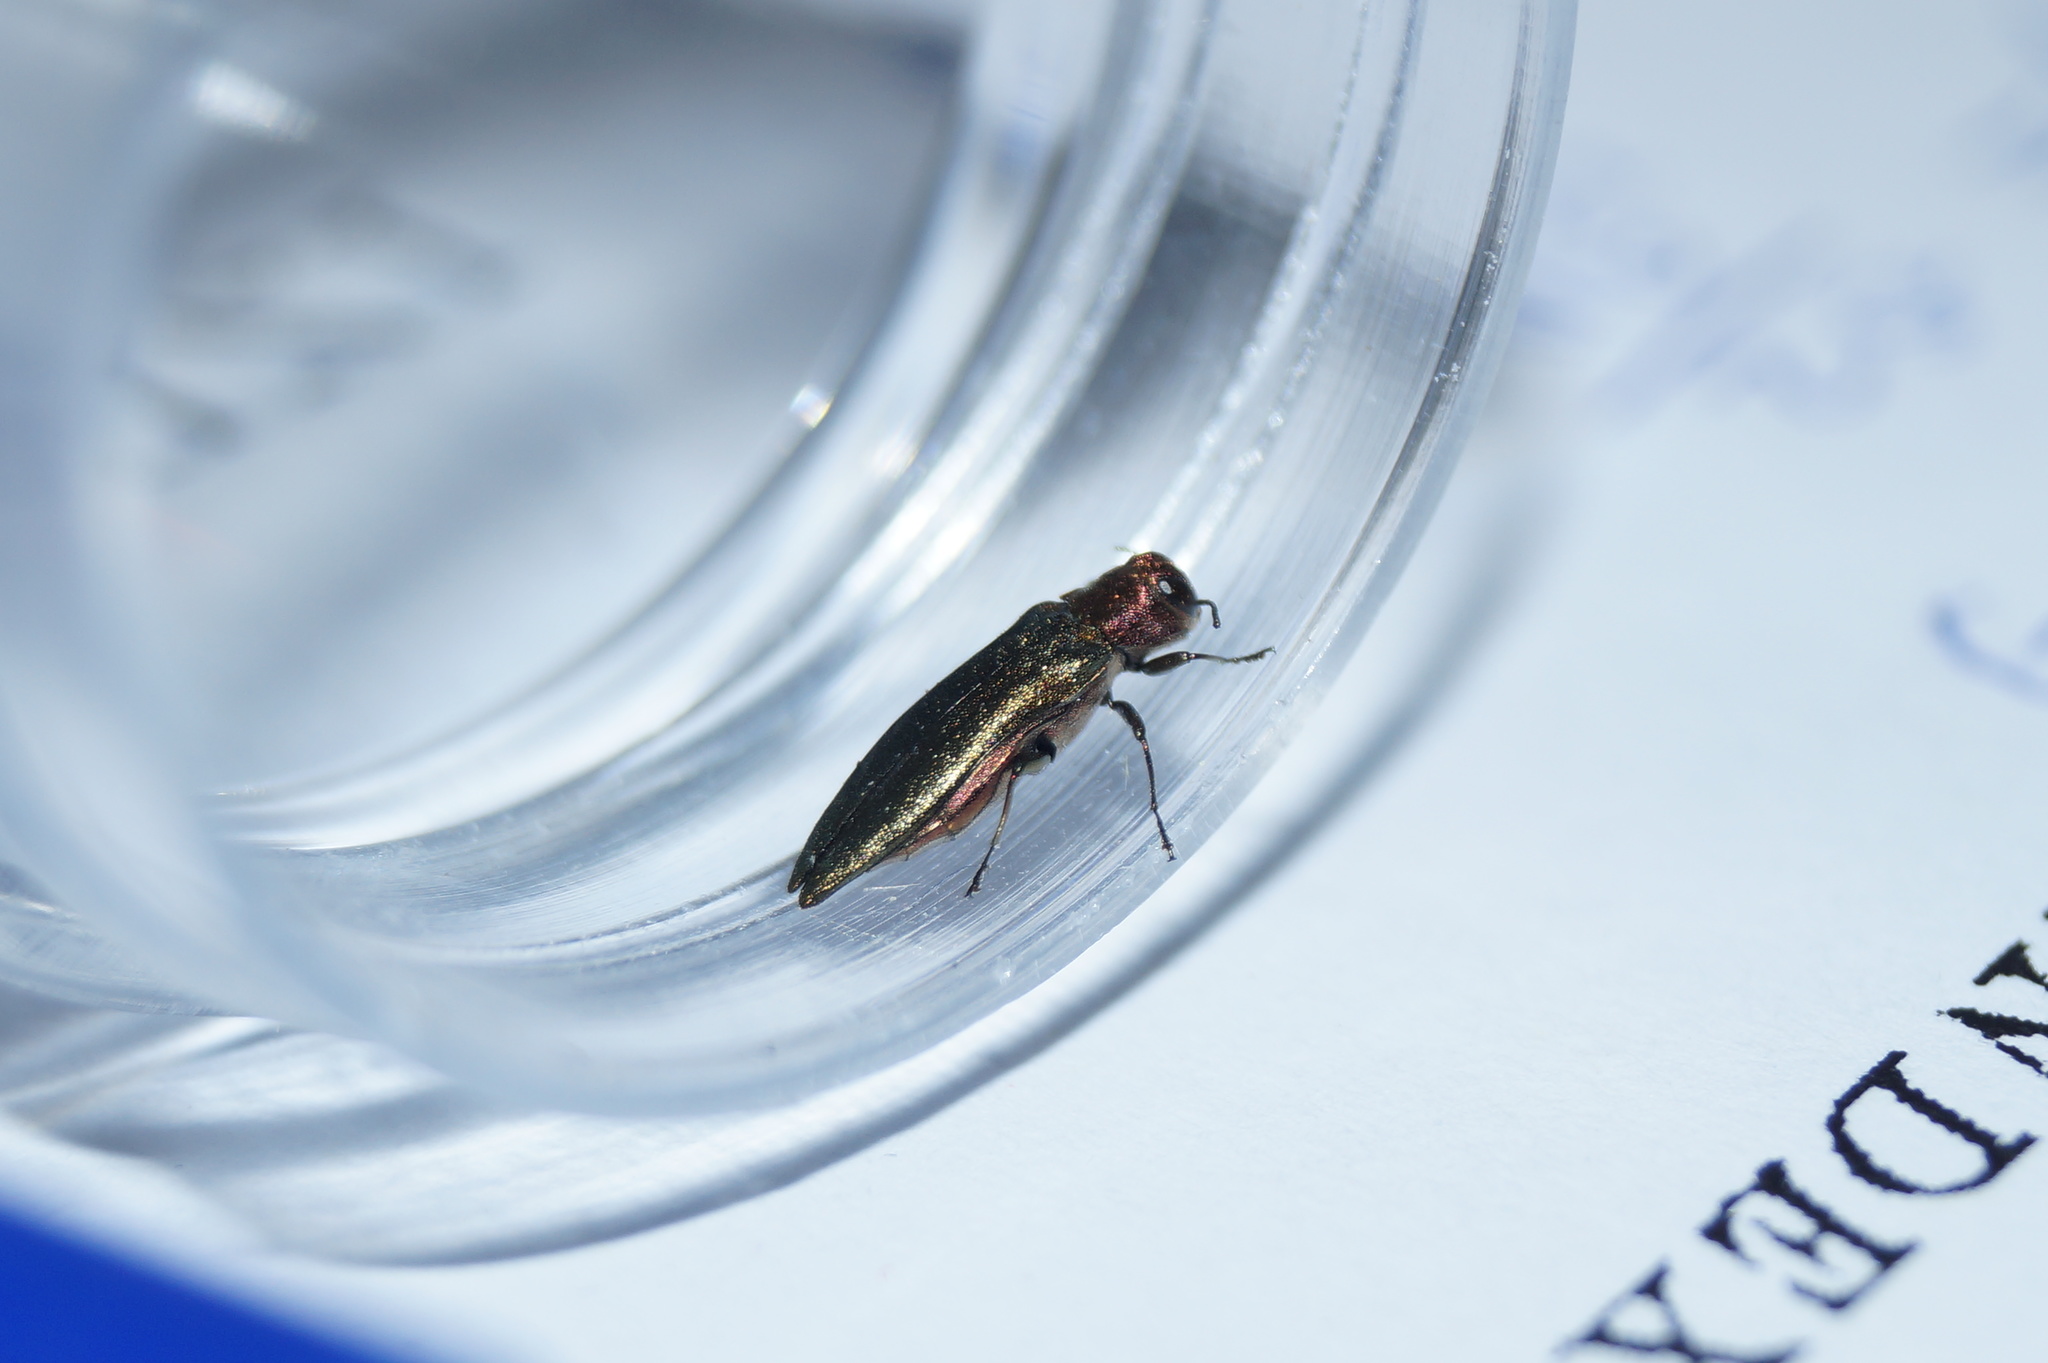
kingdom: Animalia
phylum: Arthropoda
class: Insecta
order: Coleoptera
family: Buprestidae
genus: Agrilus
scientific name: Agrilus viridis
